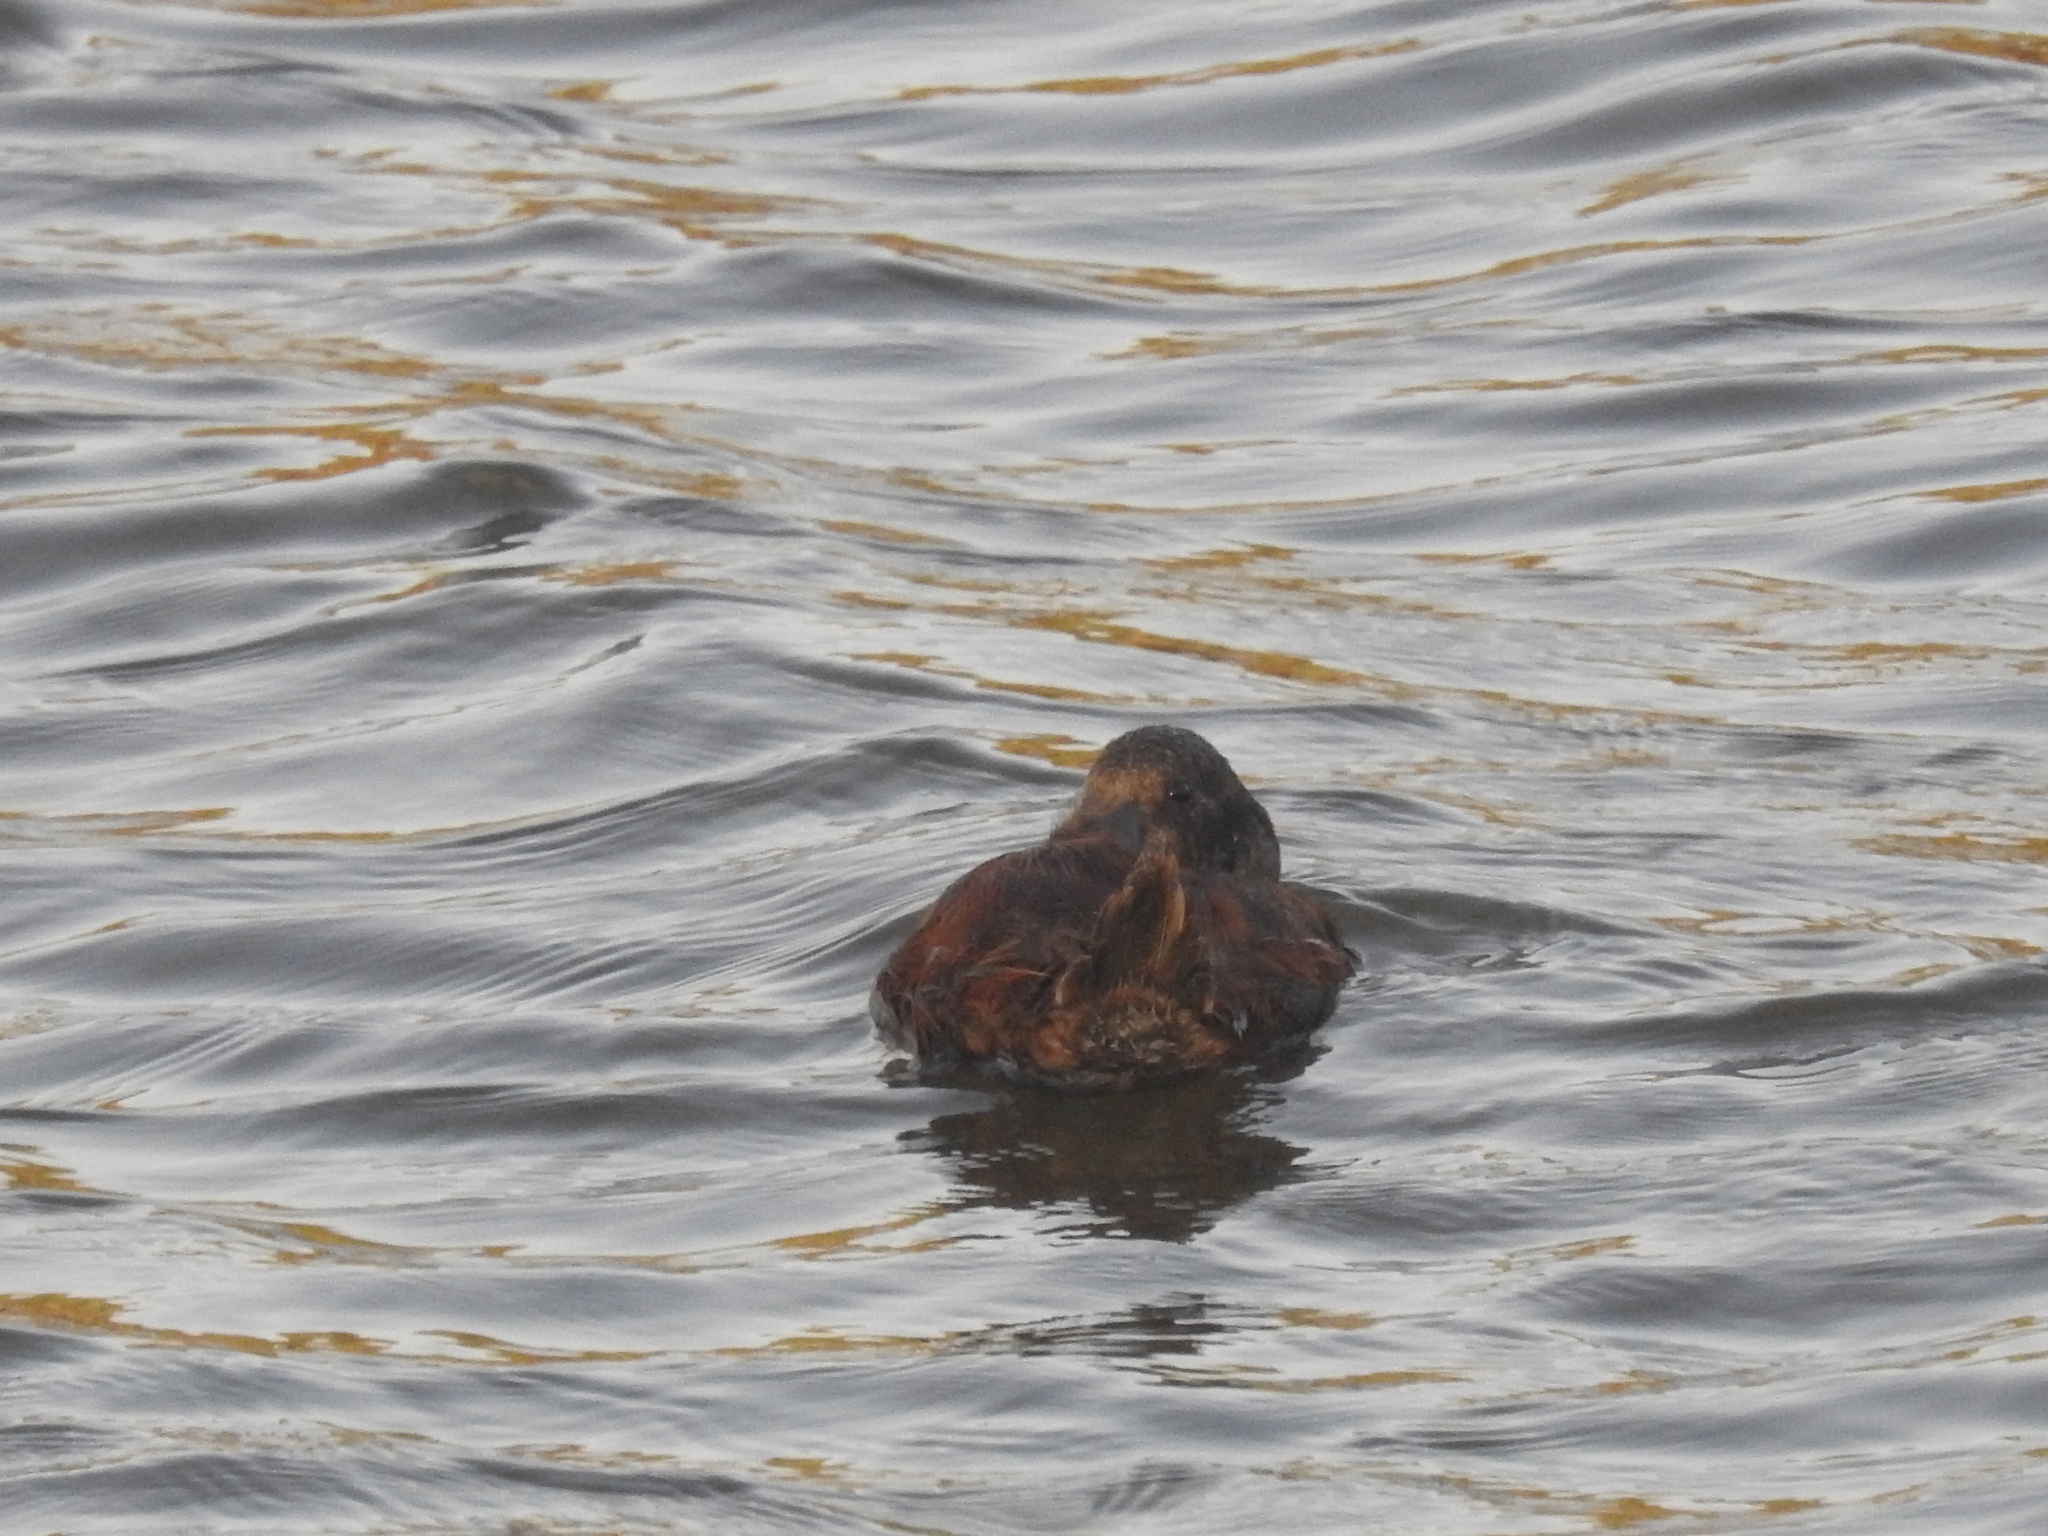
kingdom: Animalia
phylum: Chordata
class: Aves
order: Anseriformes
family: Anatidae
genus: Heteronetta
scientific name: Heteronetta atricapilla
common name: Black-headed duck
